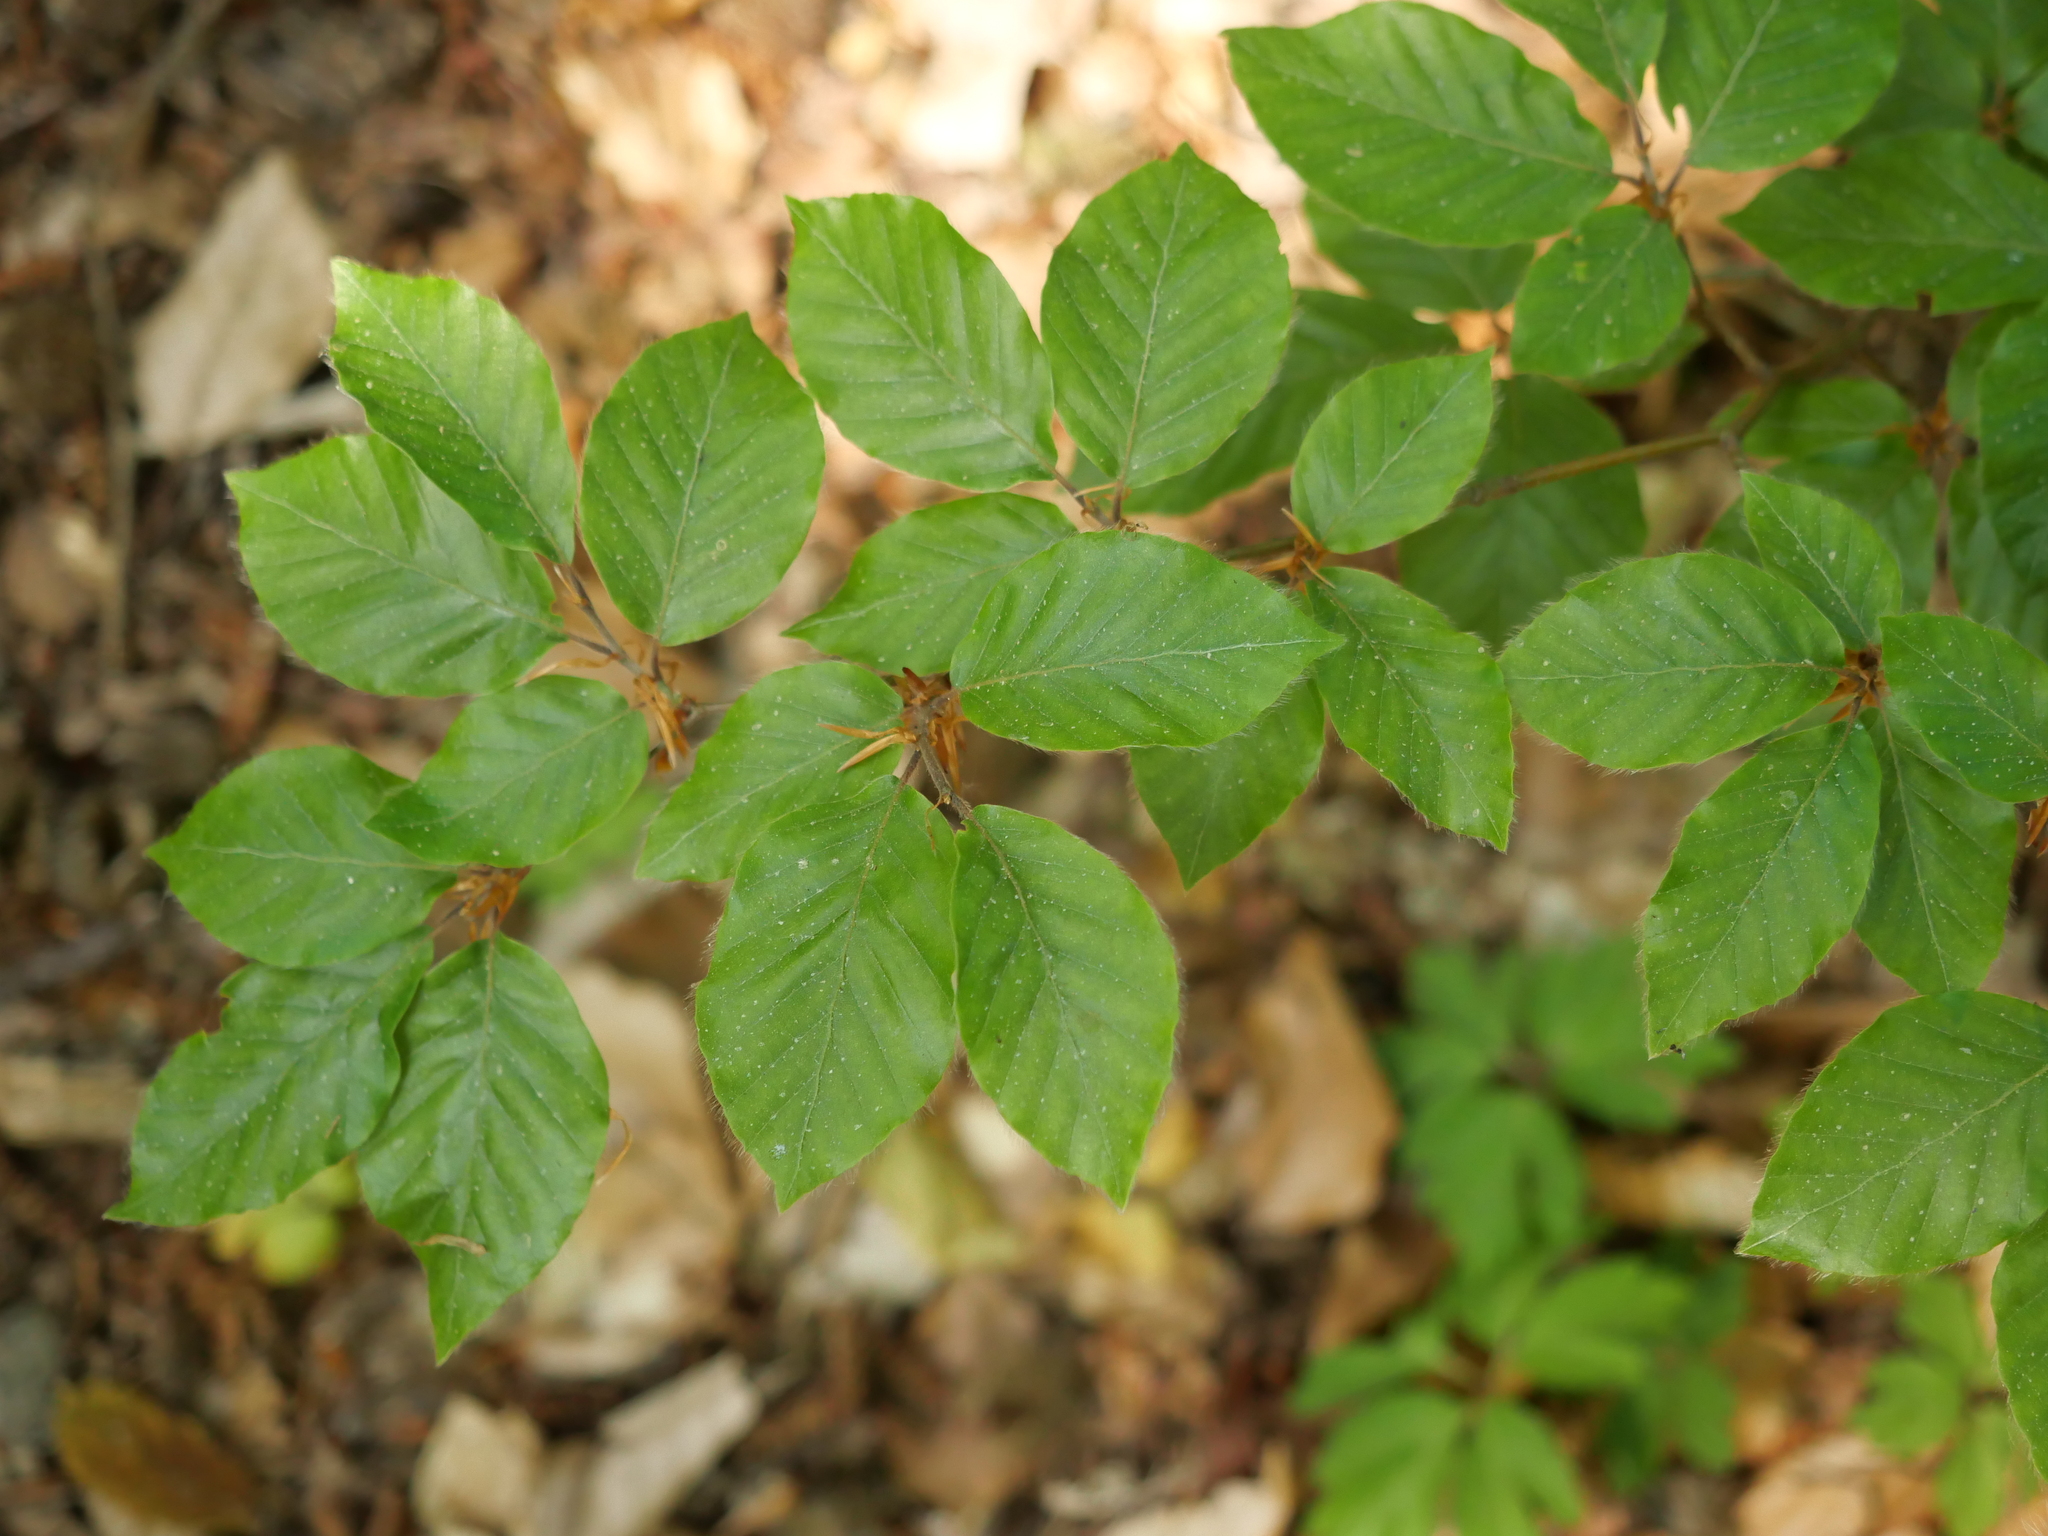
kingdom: Plantae
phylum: Tracheophyta
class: Magnoliopsida
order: Fagales
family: Fagaceae
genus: Fagus
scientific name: Fagus sylvatica
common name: Beech
